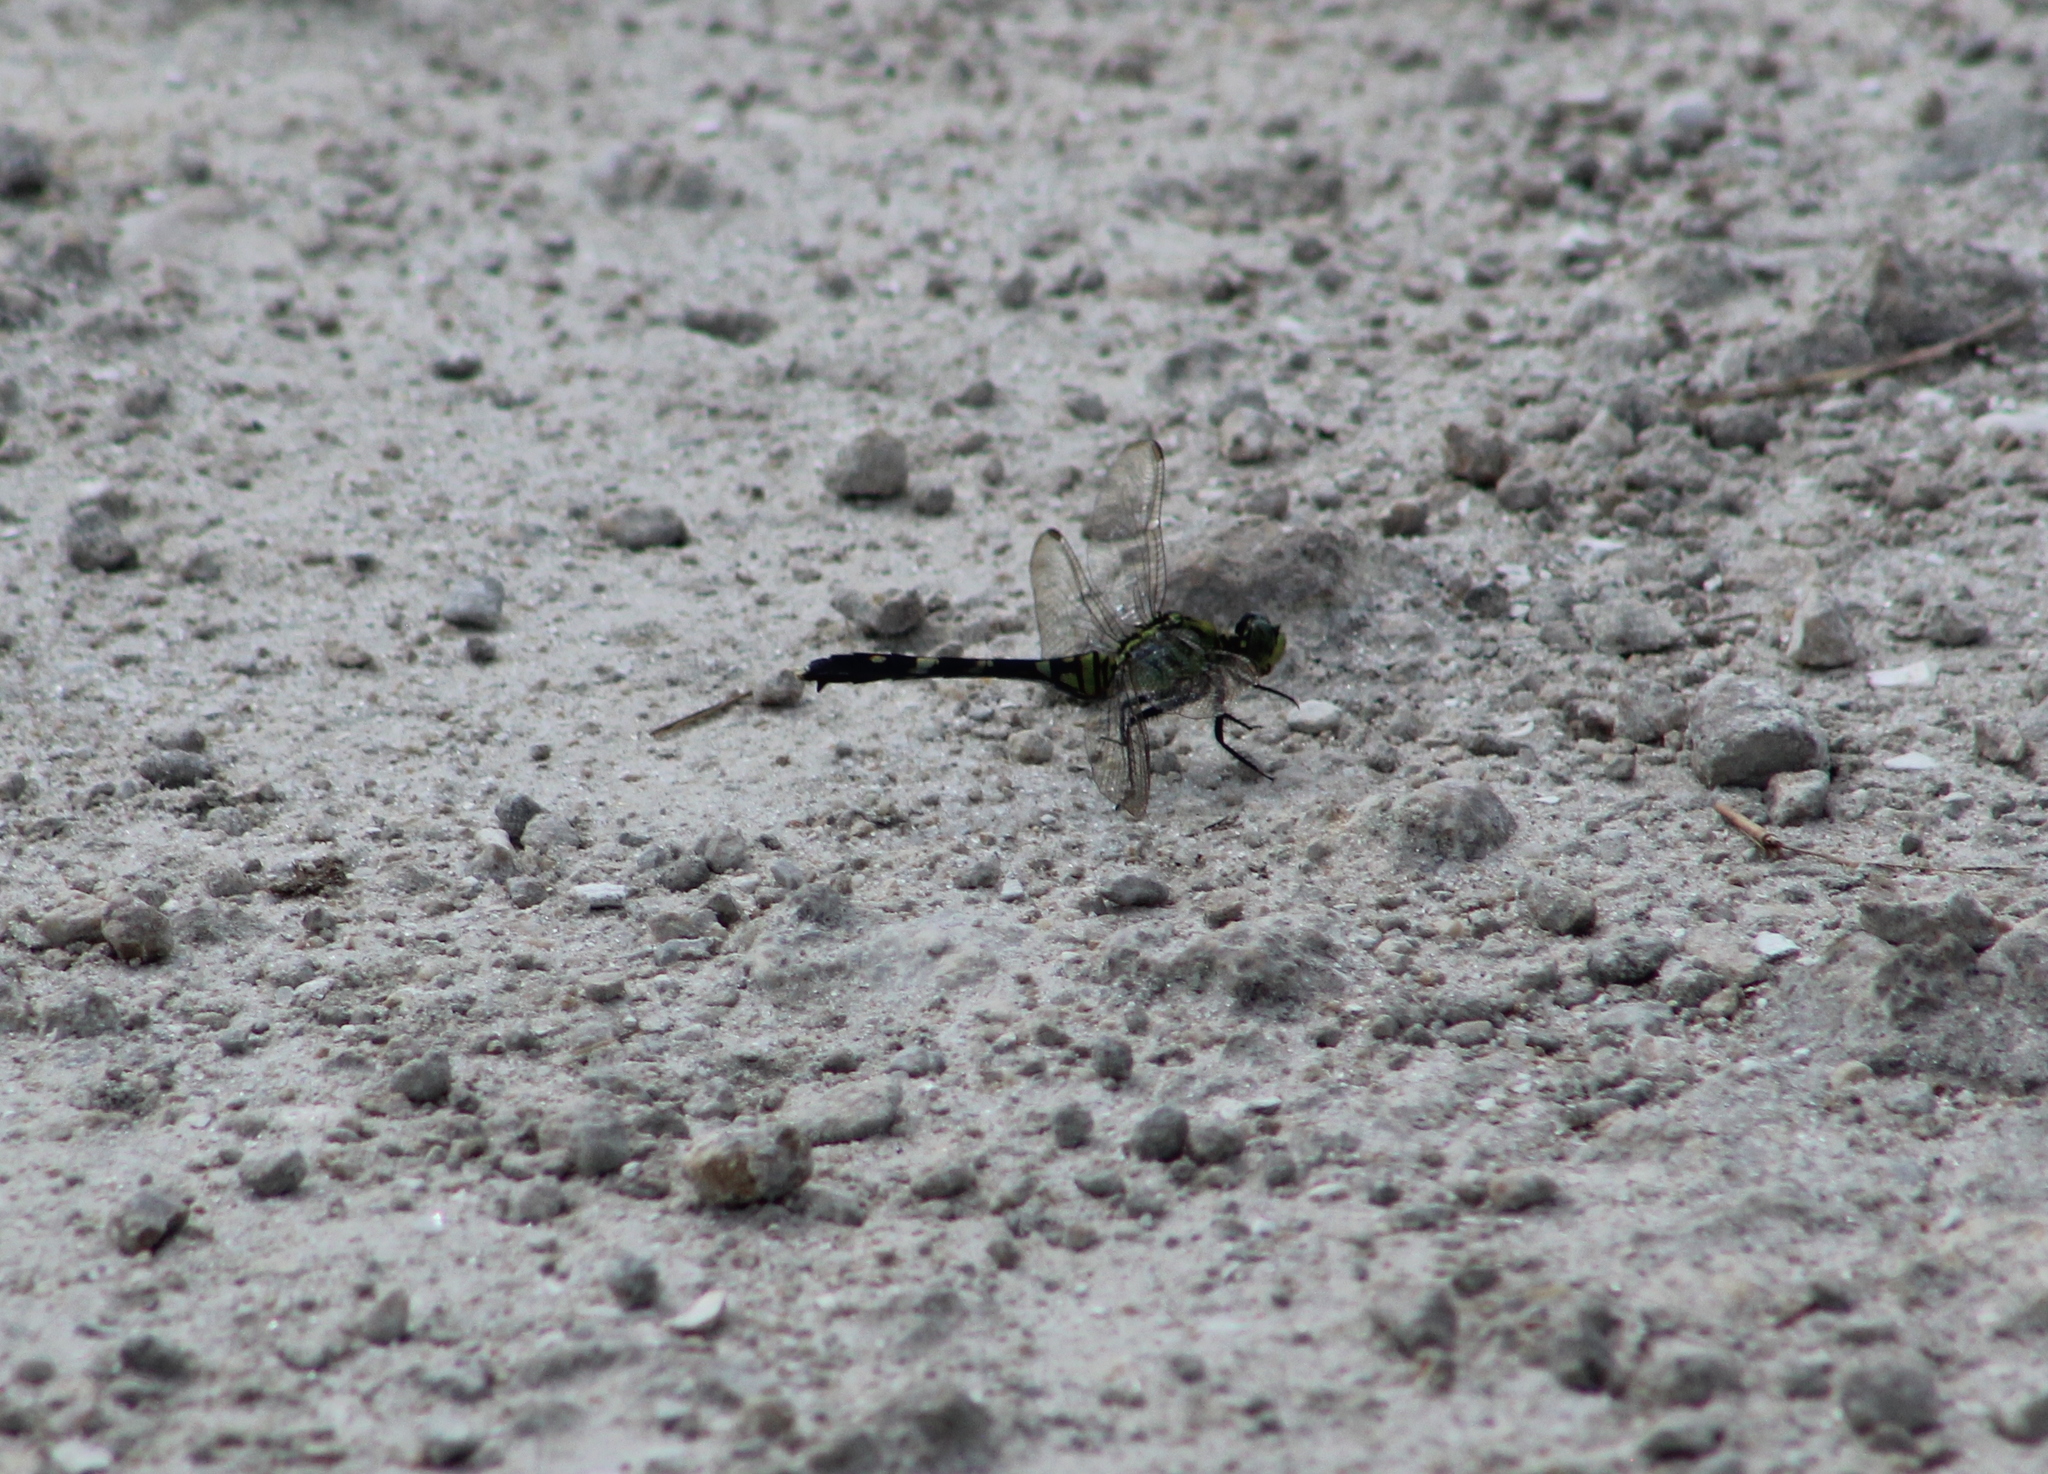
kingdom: Animalia
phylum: Arthropoda
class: Insecta
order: Odonata
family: Libellulidae
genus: Erythemis
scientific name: Erythemis simplicicollis
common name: Eastern pondhawk
